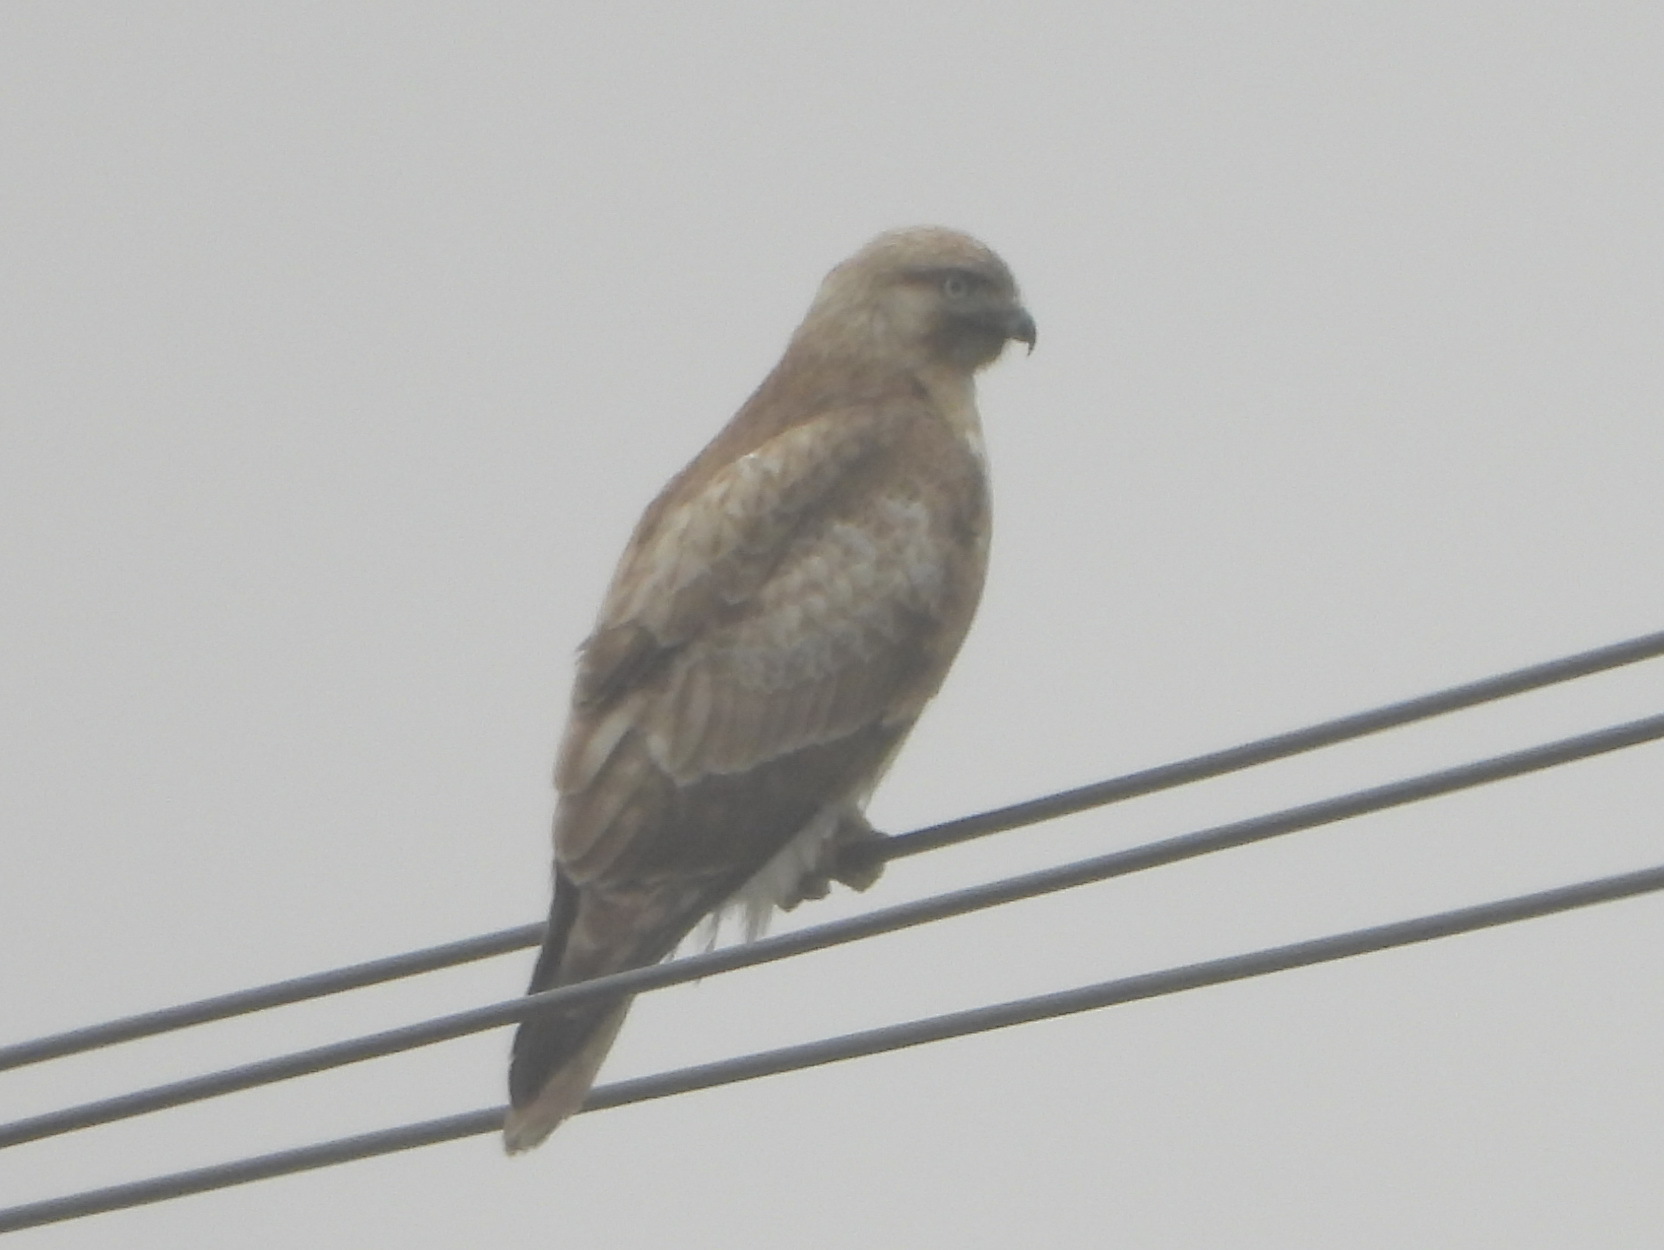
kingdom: Animalia
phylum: Chordata
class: Aves
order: Accipitriformes
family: Accipitridae
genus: Buteo
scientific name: Buteo japonicus
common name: Eastern buzzard
